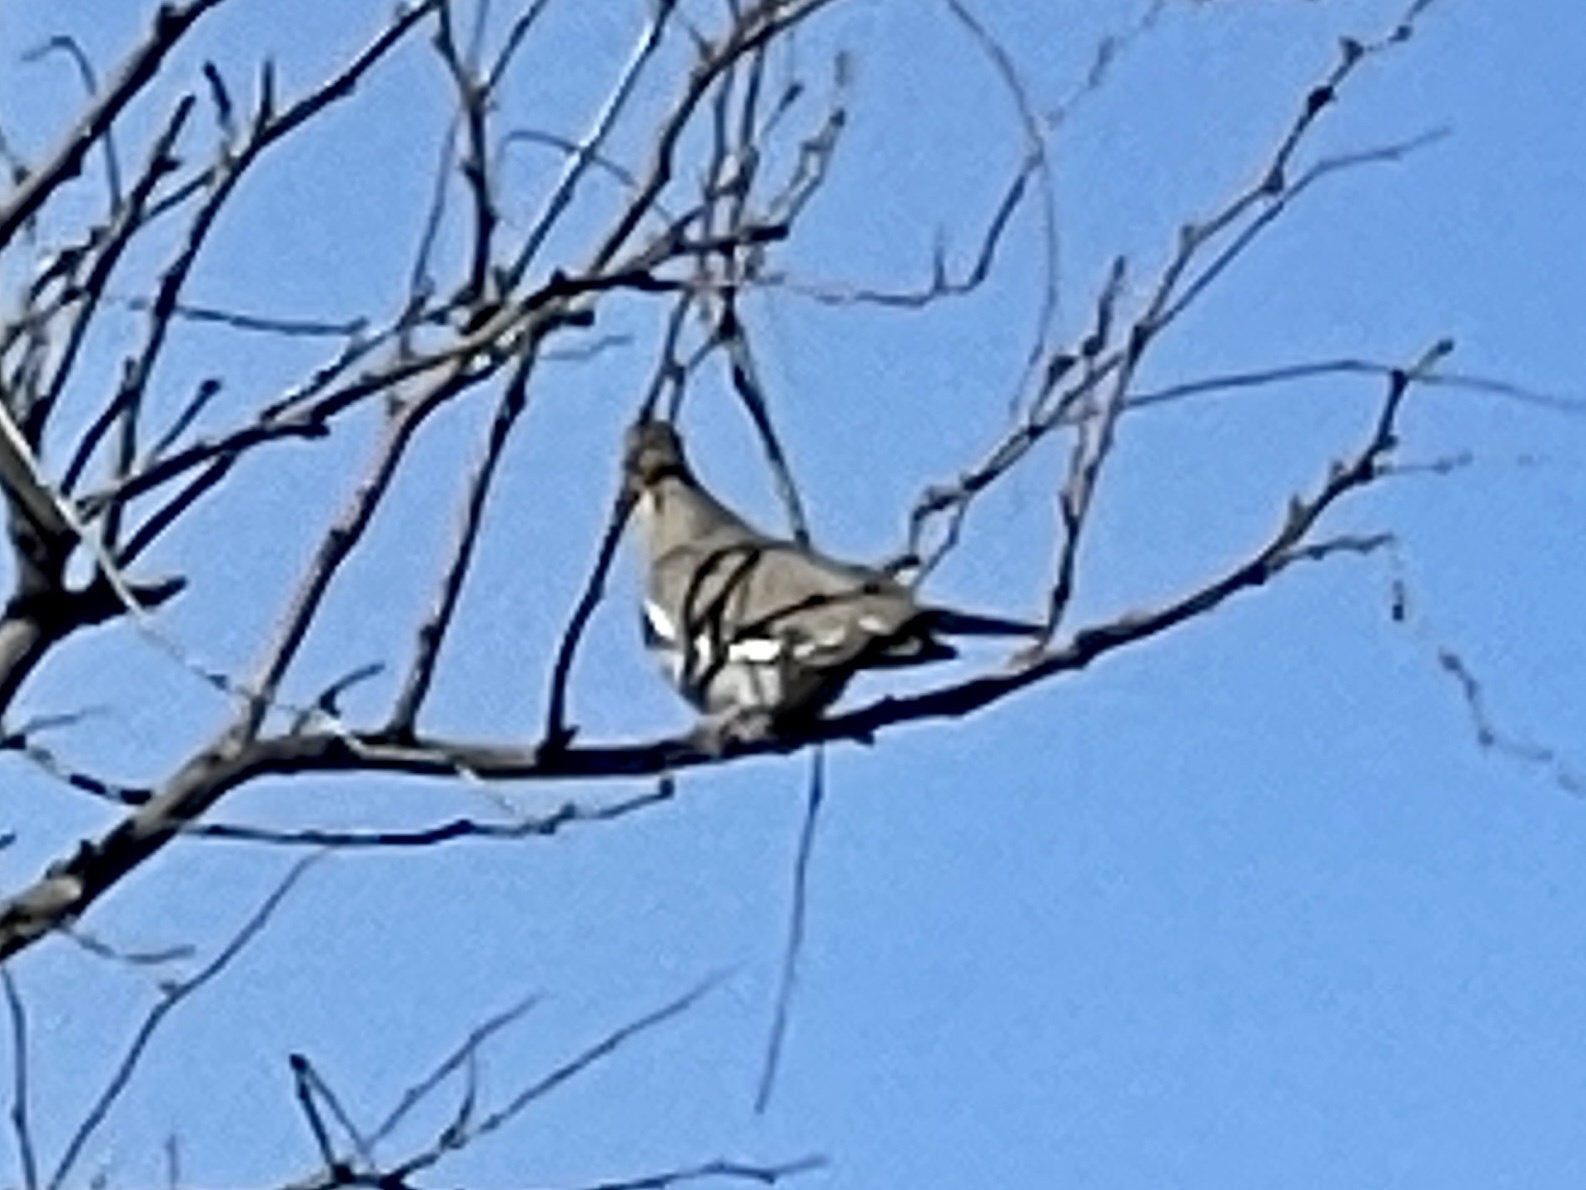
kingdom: Animalia
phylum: Chordata
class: Aves
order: Columbiformes
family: Columbidae
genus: Zenaida
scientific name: Zenaida asiatica
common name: White-winged dove
